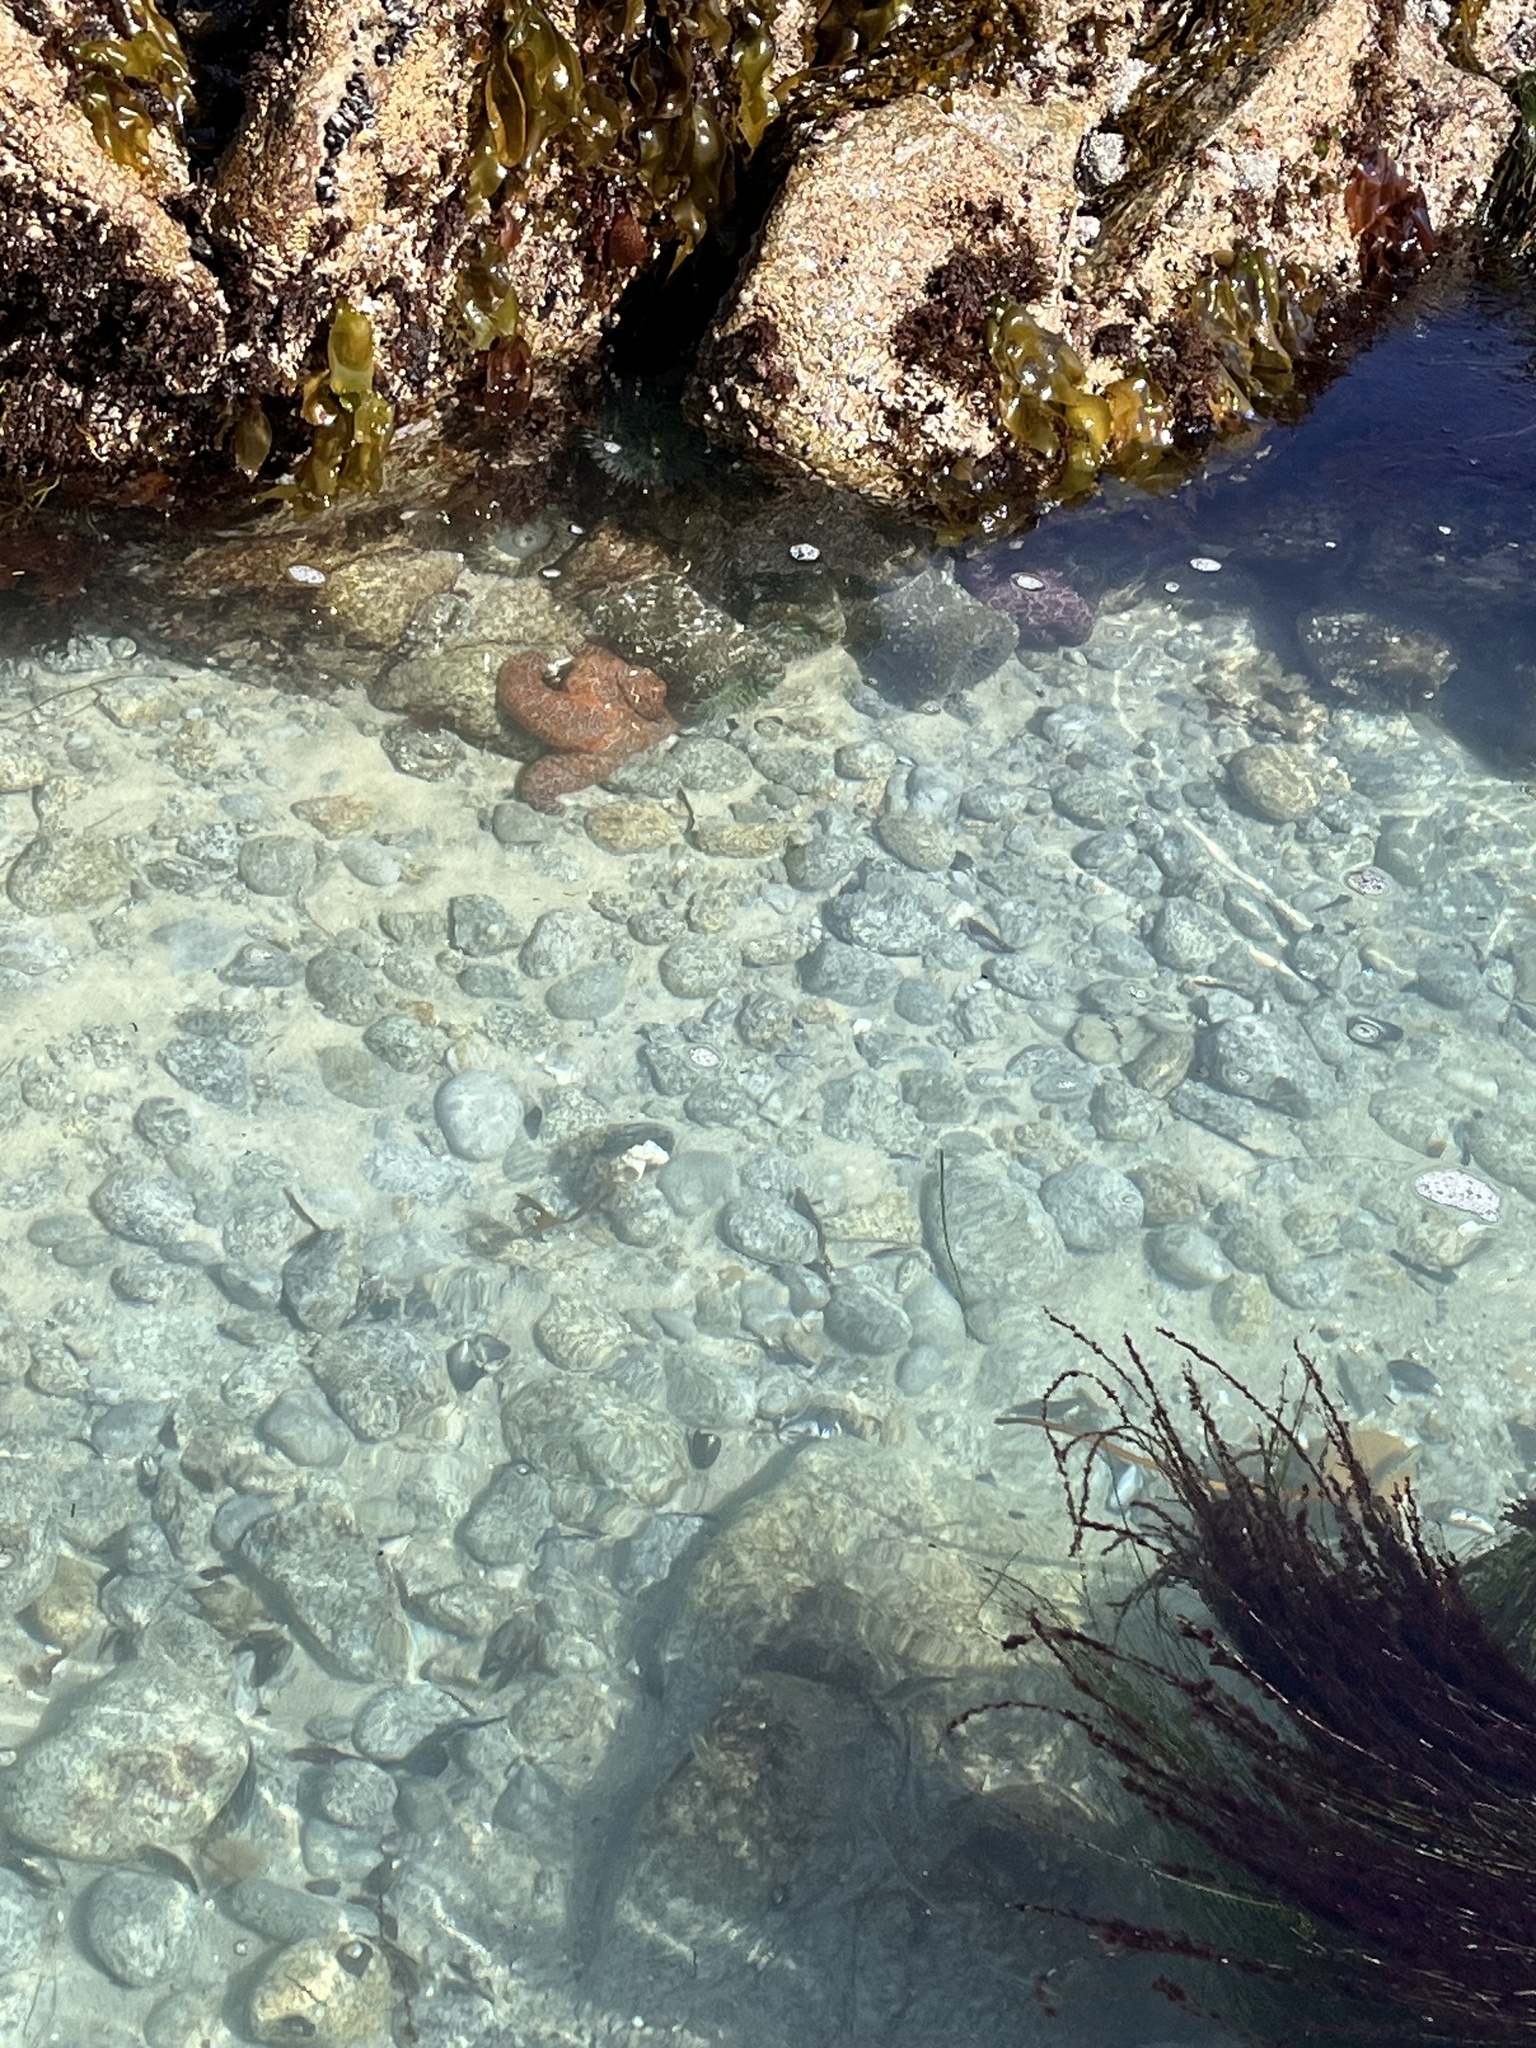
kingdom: Animalia
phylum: Echinodermata
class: Asteroidea
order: Forcipulatida
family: Asteriidae
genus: Pisaster
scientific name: Pisaster ochraceus
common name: Ochre stars
